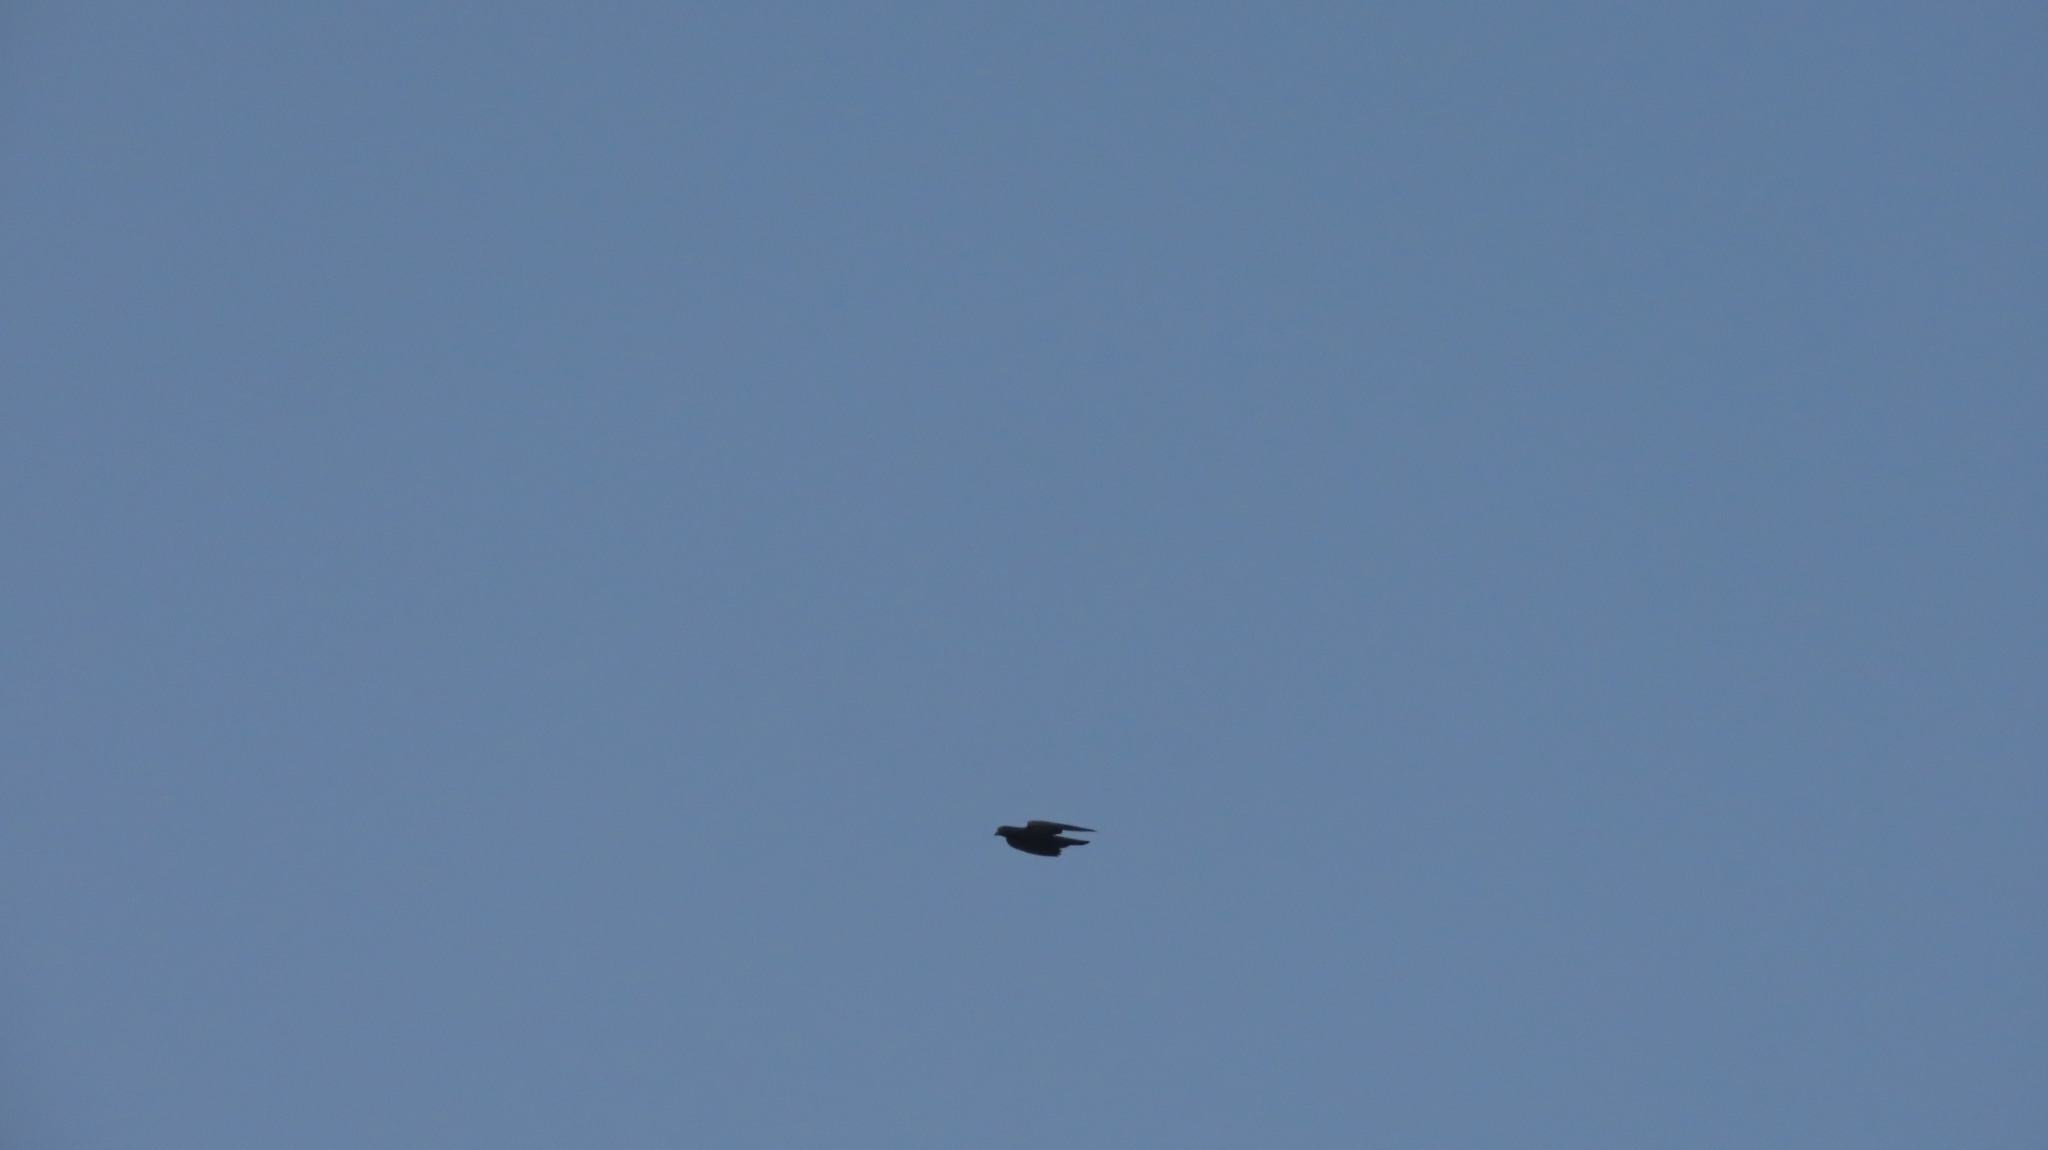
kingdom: Animalia
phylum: Chordata
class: Aves
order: Columbiformes
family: Columbidae
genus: Columba
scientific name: Columba livia
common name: Rock pigeon
